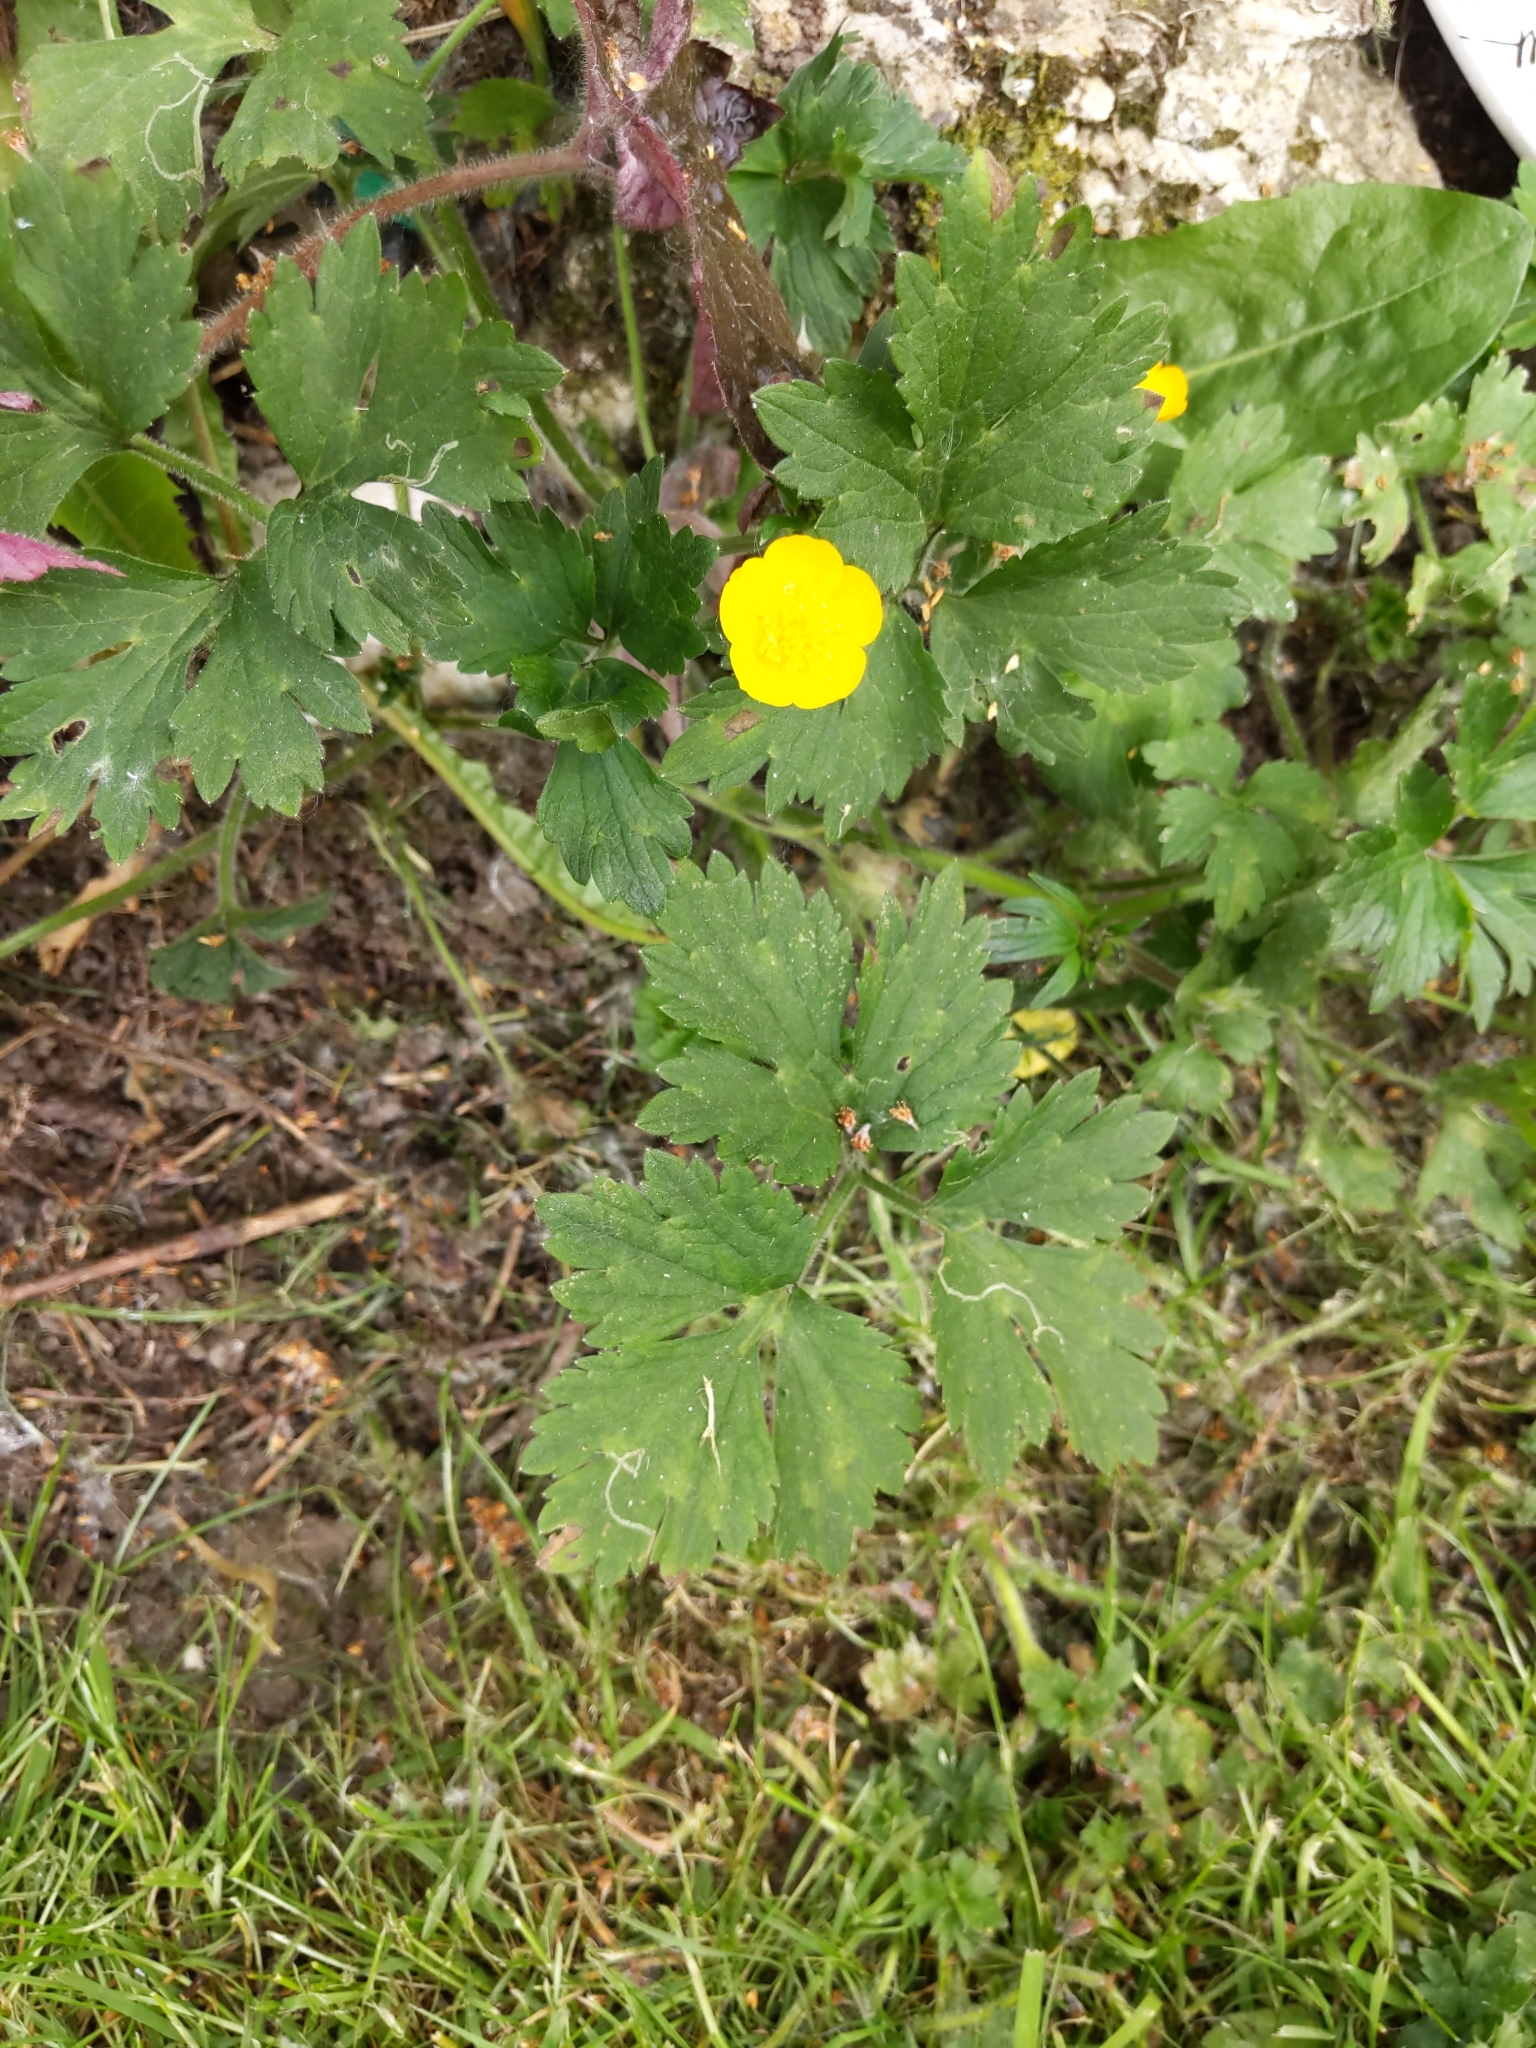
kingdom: Plantae
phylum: Tracheophyta
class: Magnoliopsida
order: Ranunculales
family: Ranunculaceae
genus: Ranunculus
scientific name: Ranunculus repens
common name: Creeping buttercup
